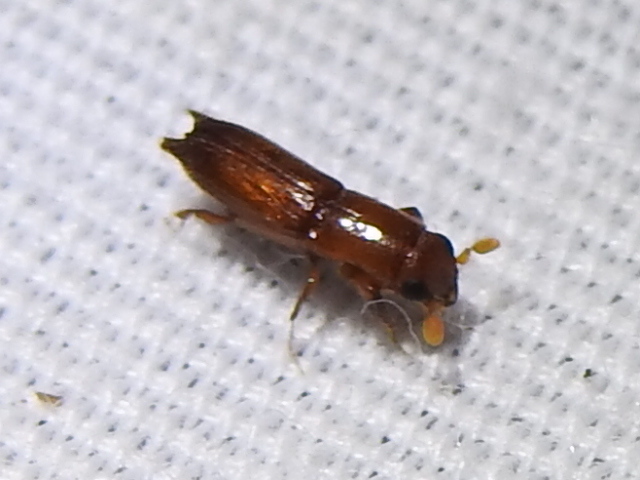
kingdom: Animalia
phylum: Arthropoda
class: Insecta
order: Coleoptera
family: Curculionidae
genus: Euplatypus
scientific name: Euplatypus compositus
